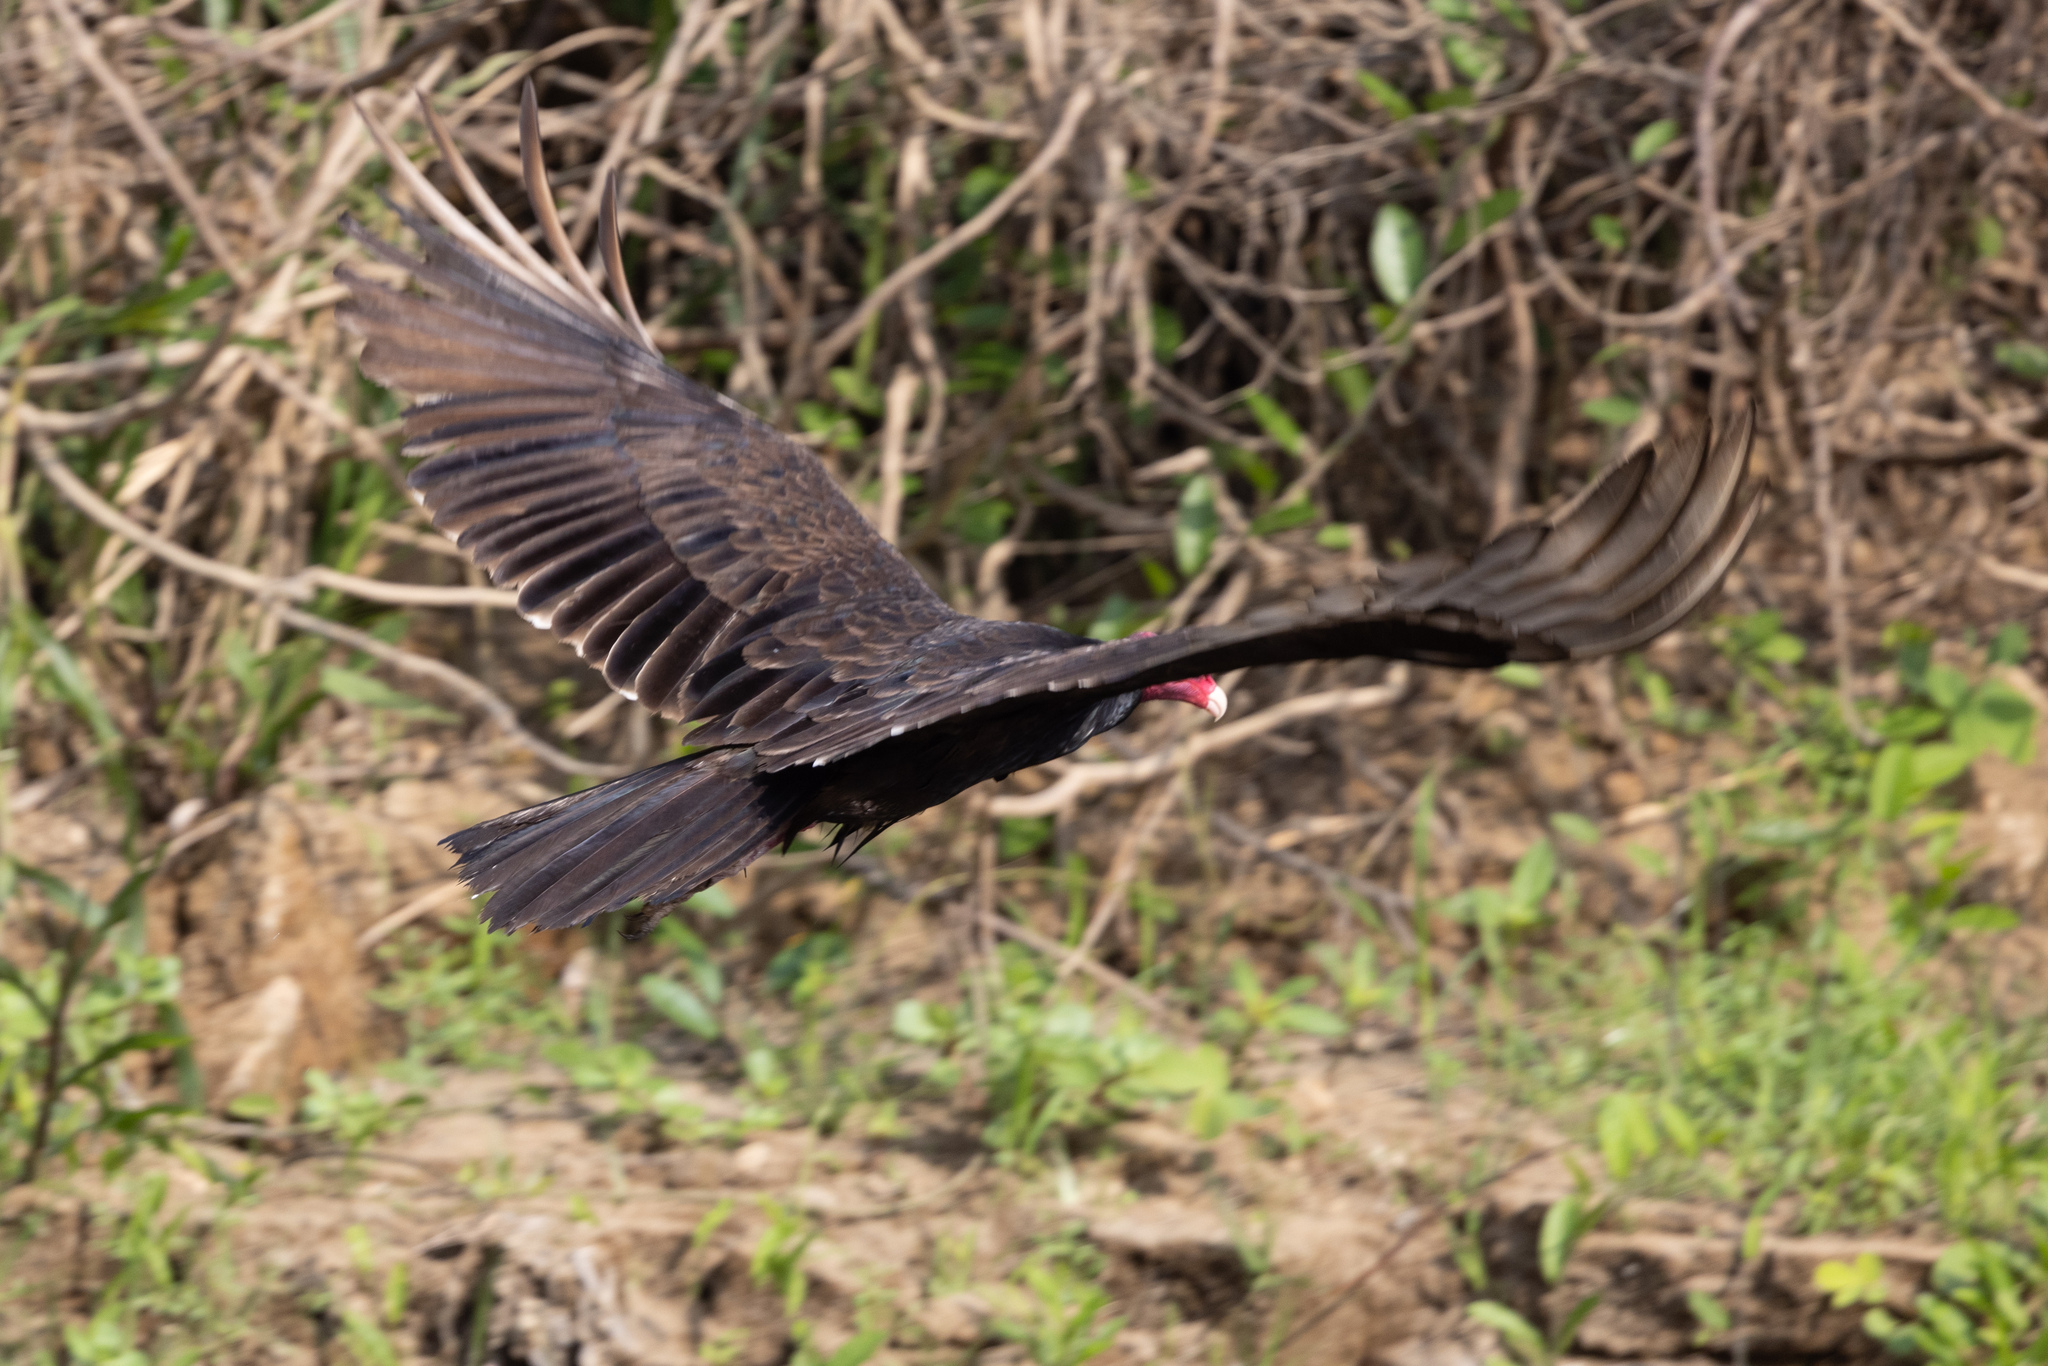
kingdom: Animalia
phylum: Chordata
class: Aves
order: Accipitriformes
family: Cathartidae
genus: Cathartes
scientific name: Cathartes aura
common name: Turkey vulture
